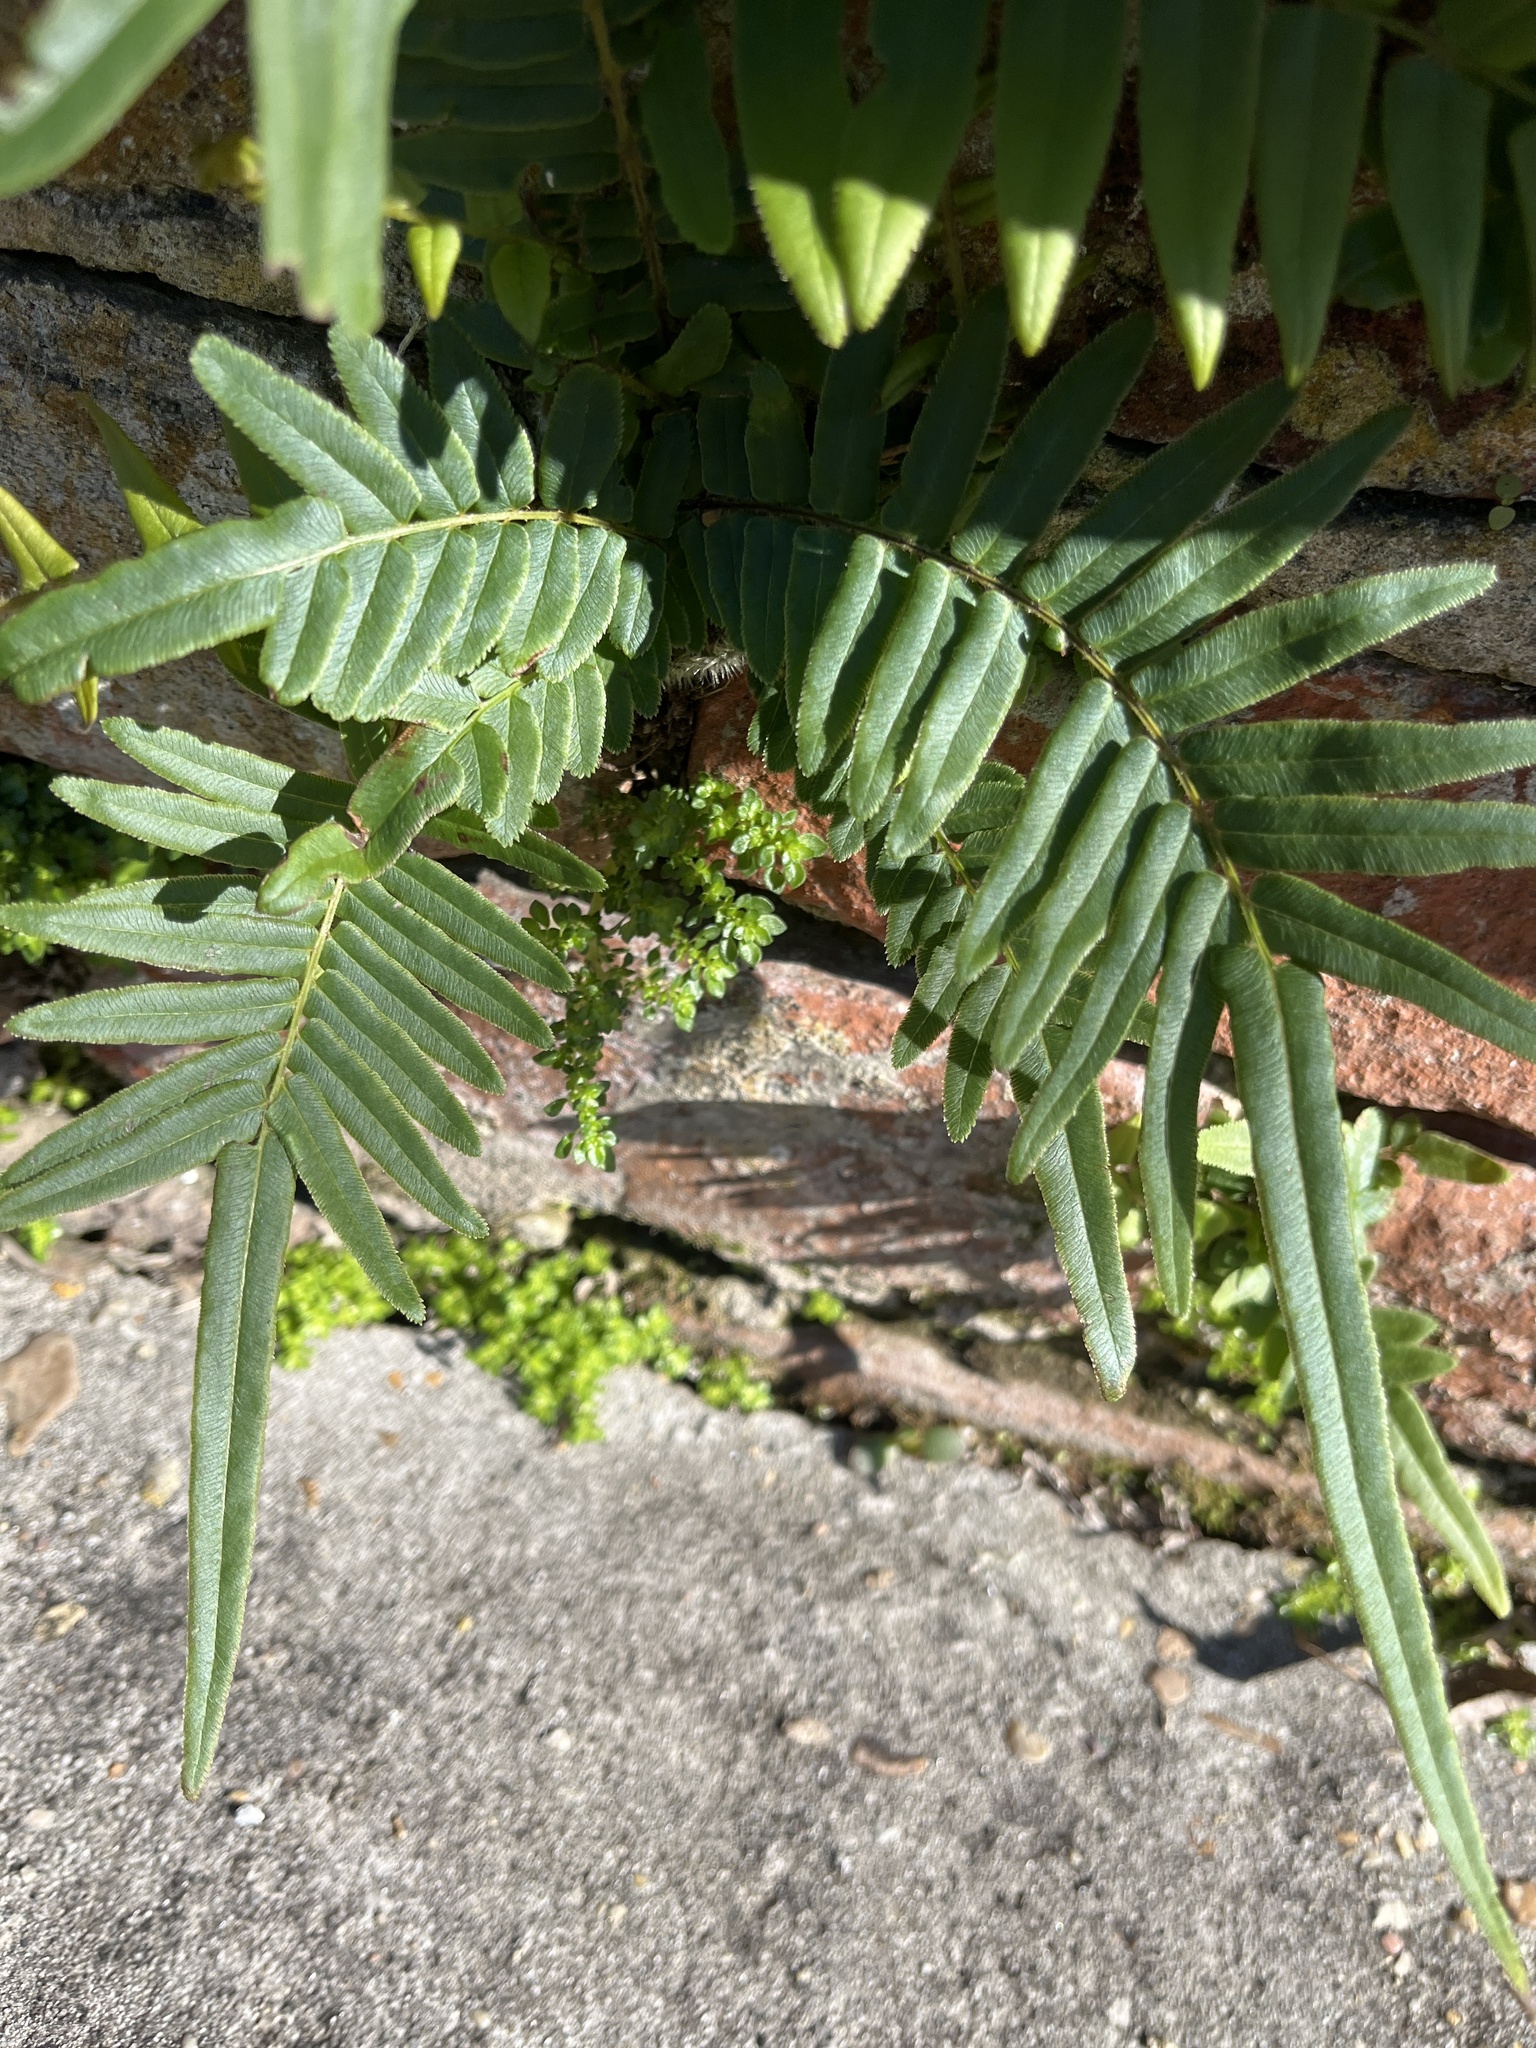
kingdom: Plantae
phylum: Tracheophyta
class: Polypodiopsida
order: Polypodiales
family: Pteridaceae
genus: Pteris
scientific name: Pteris vittata
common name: Ladder brake
